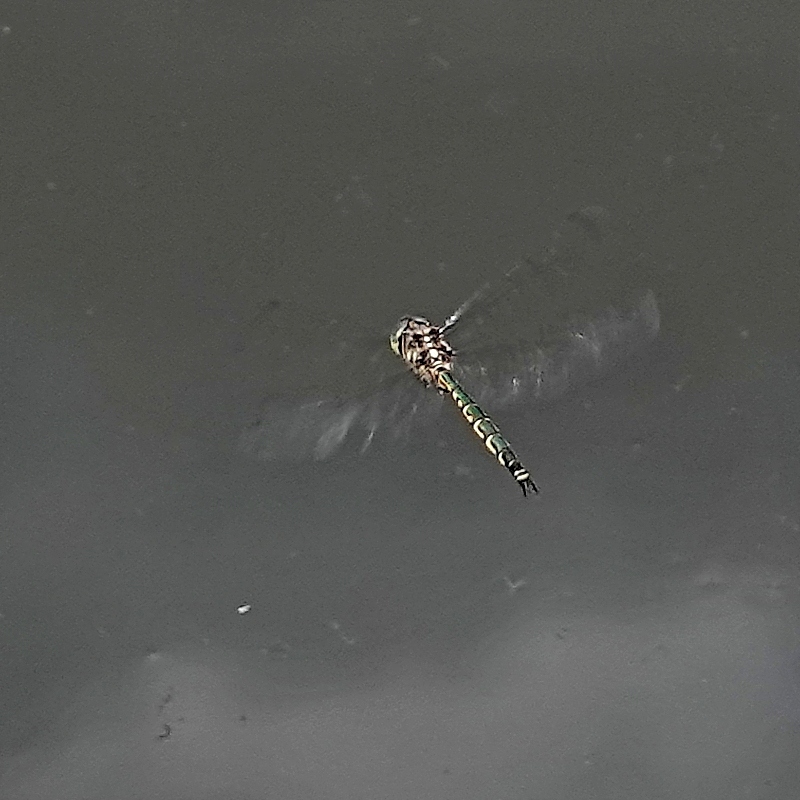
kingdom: Animalia
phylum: Arthropoda
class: Insecta
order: Odonata
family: Corduliidae
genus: Hemicordulia
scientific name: Hemicordulia australiae
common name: Sentry dragonfly
